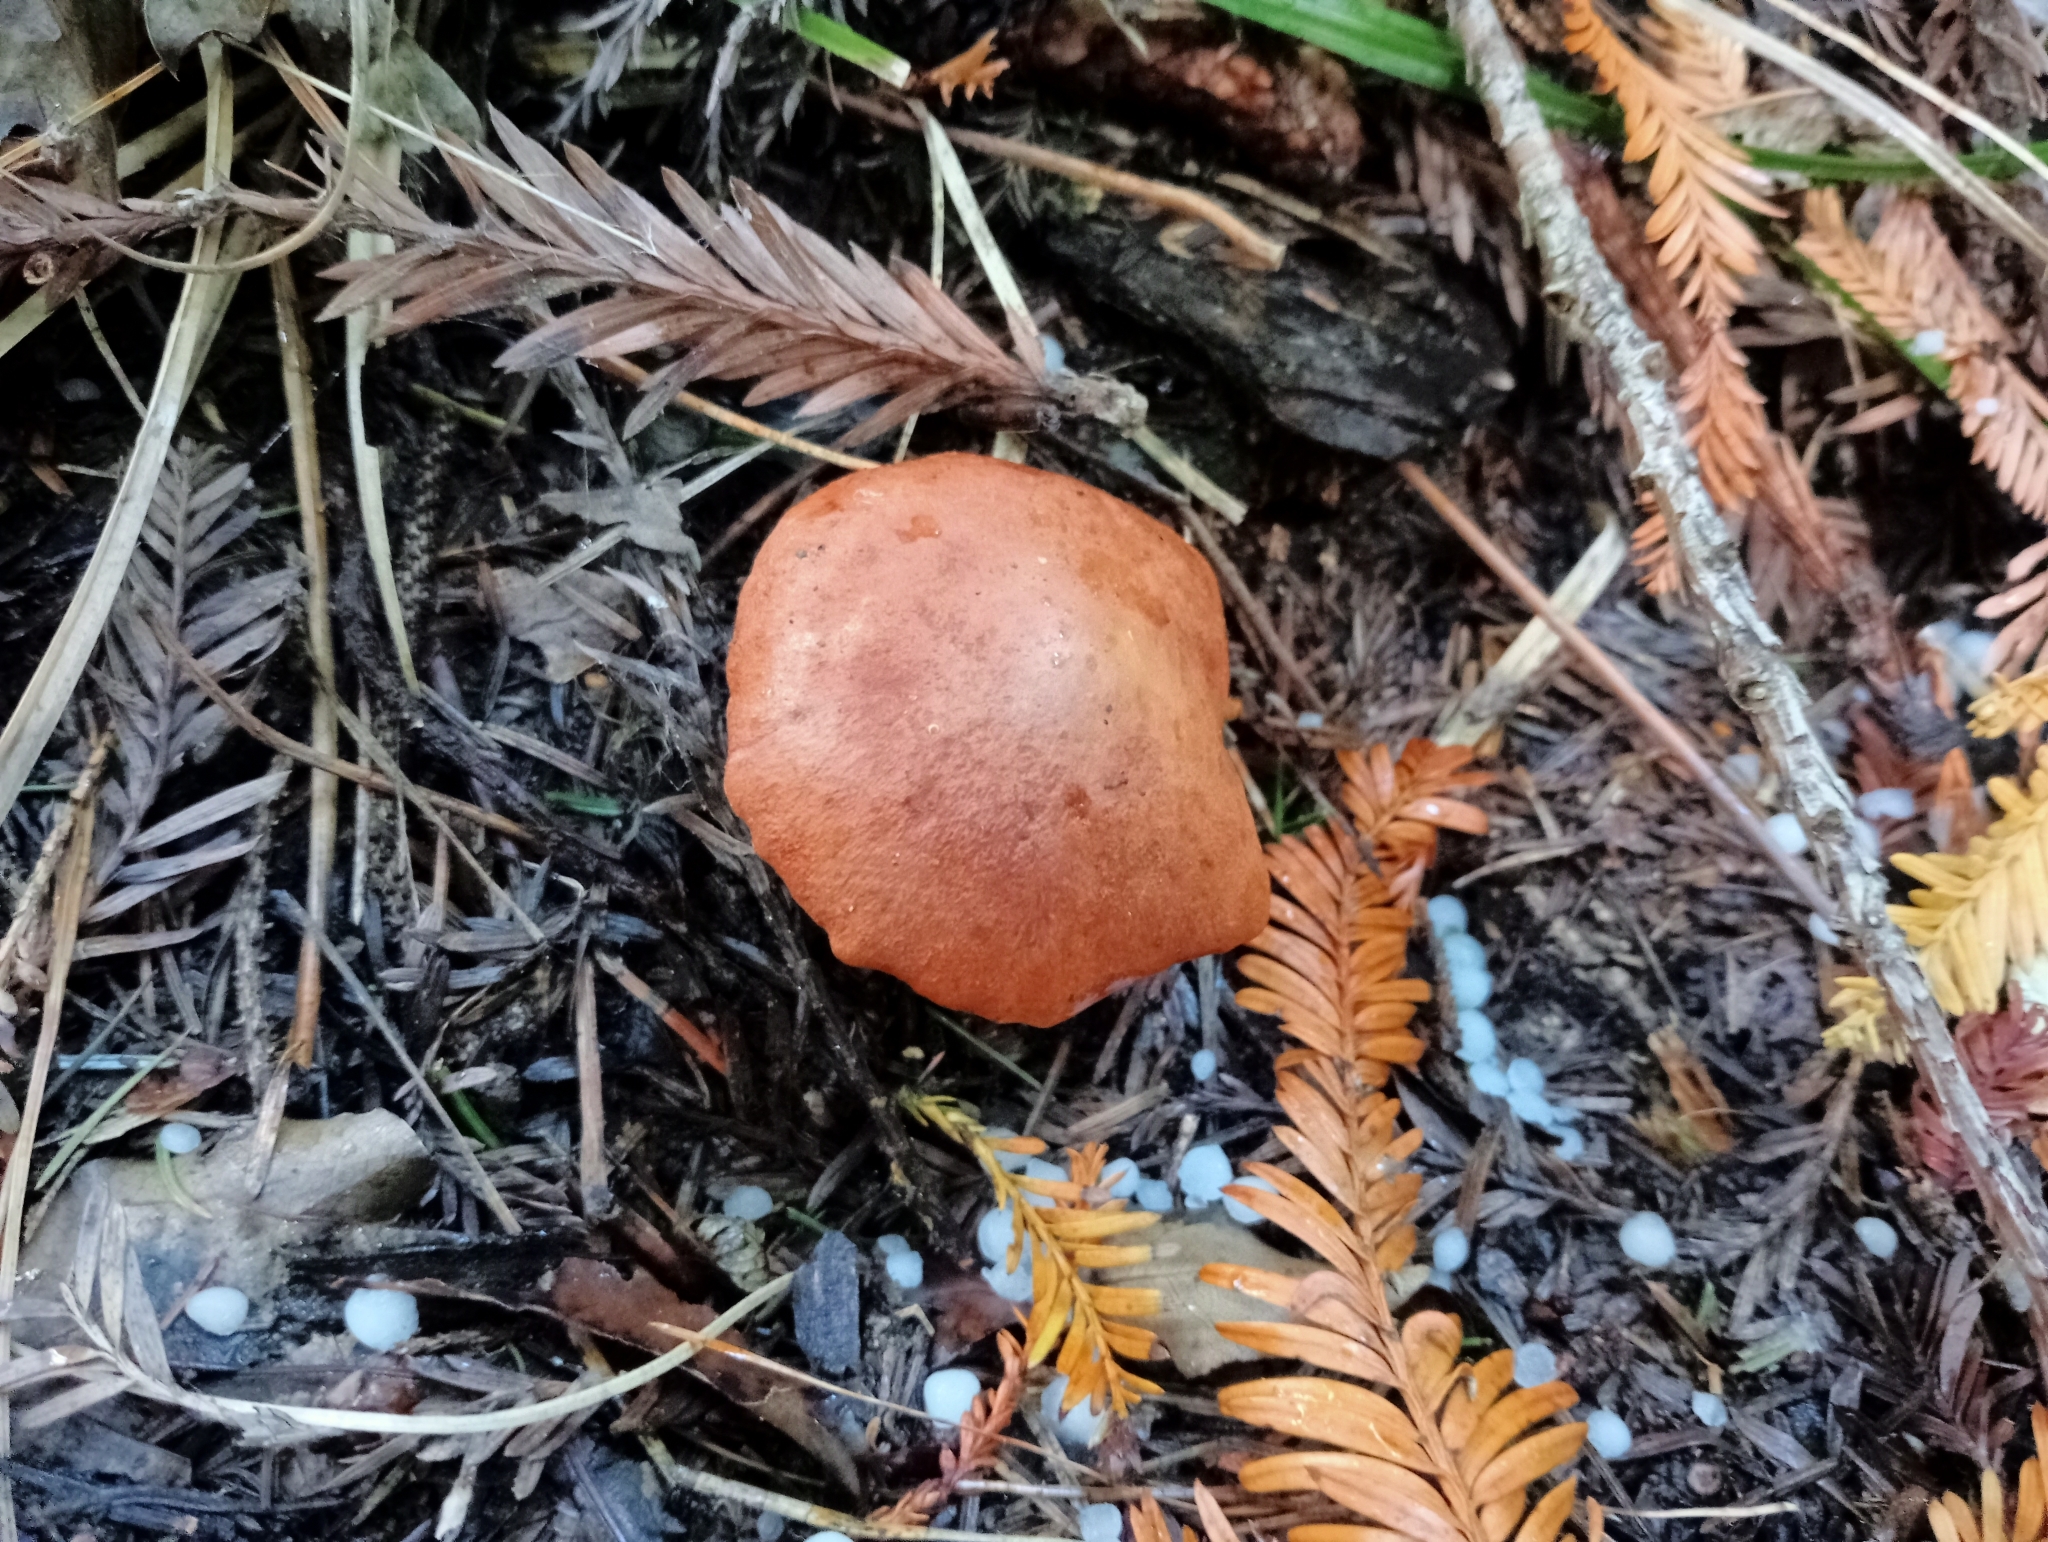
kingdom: Fungi
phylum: Basidiomycota
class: Agaricomycetes
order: Boletales
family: Boletaceae
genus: Chalciporus
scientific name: Chalciporus piperatus
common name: Peppery bolete
